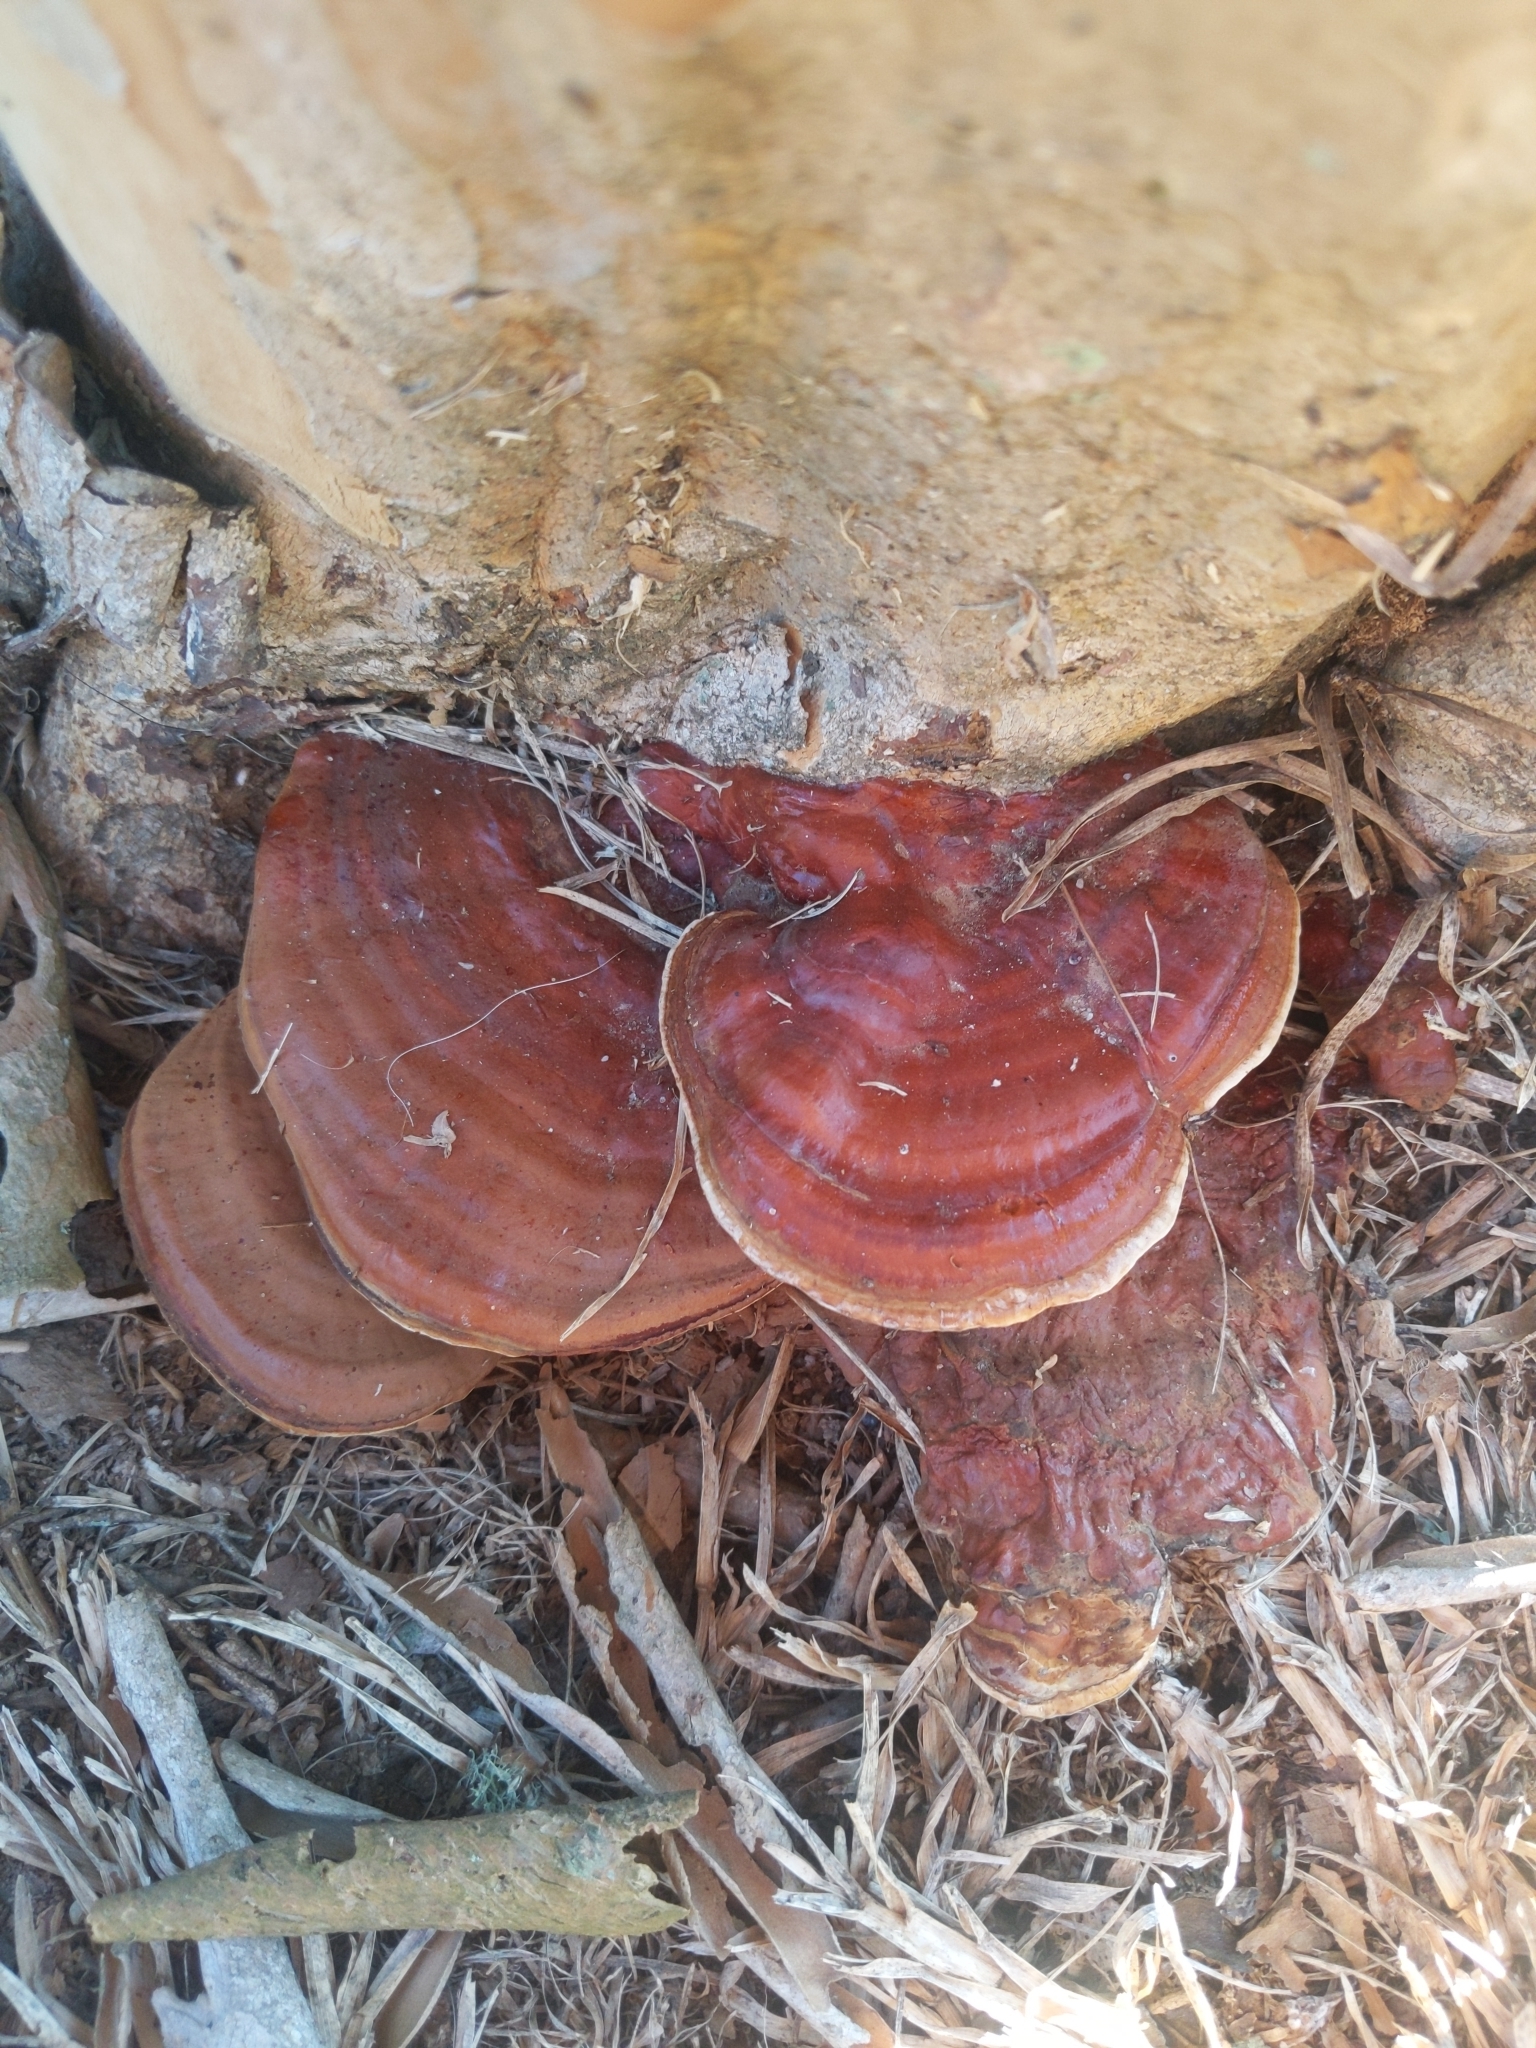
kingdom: Fungi
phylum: Basidiomycota
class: Agaricomycetes
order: Polyporales
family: Polyporaceae
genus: Ganoderma
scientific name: Ganoderma resinaceum
